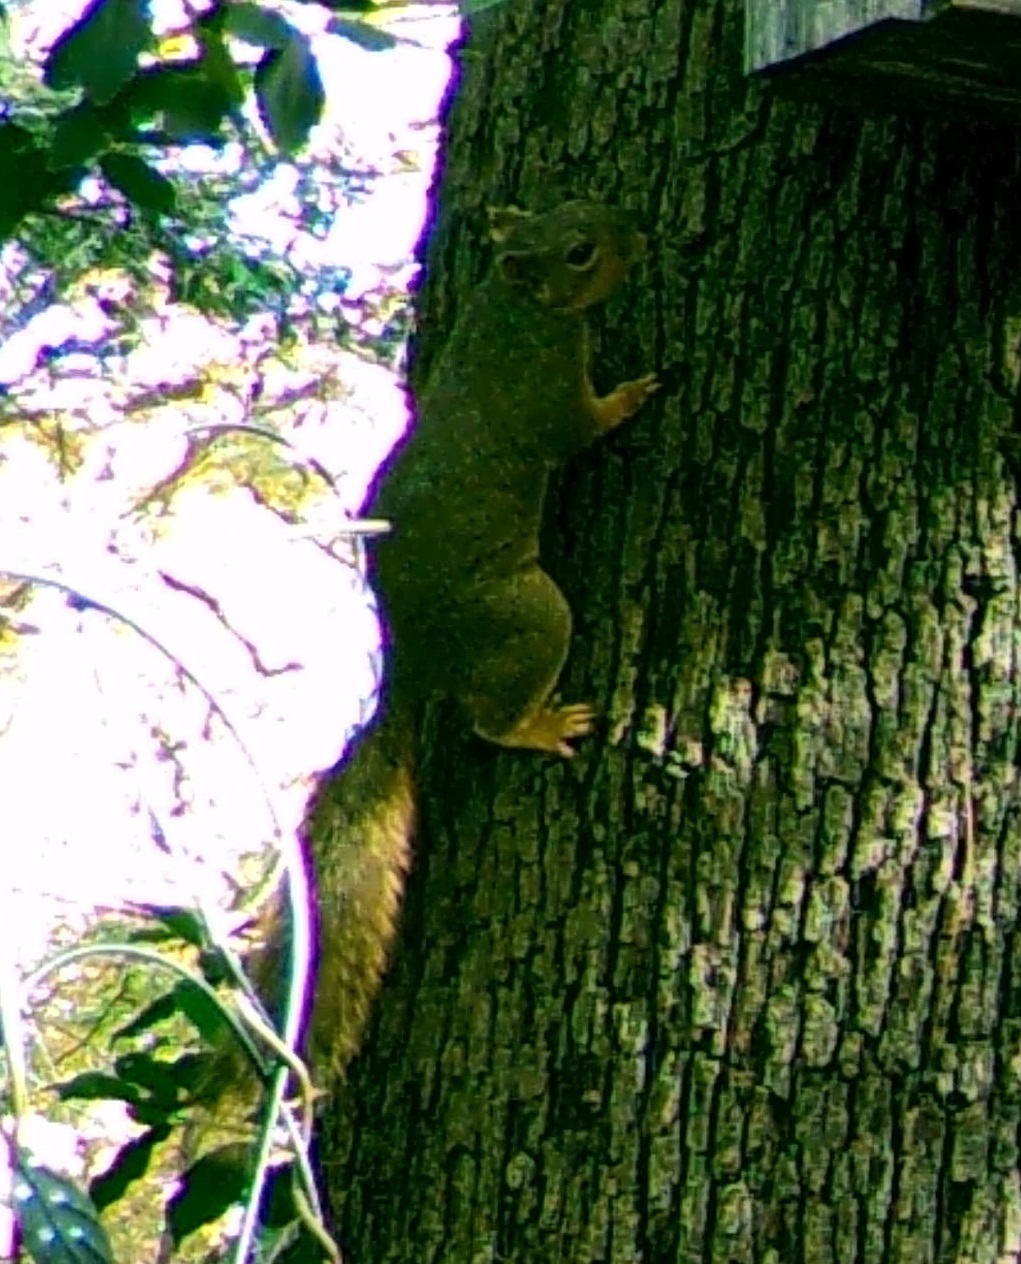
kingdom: Animalia
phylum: Chordata
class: Mammalia
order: Rodentia
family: Sciuridae
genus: Sciurus
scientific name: Sciurus niger
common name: Fox squirrel
